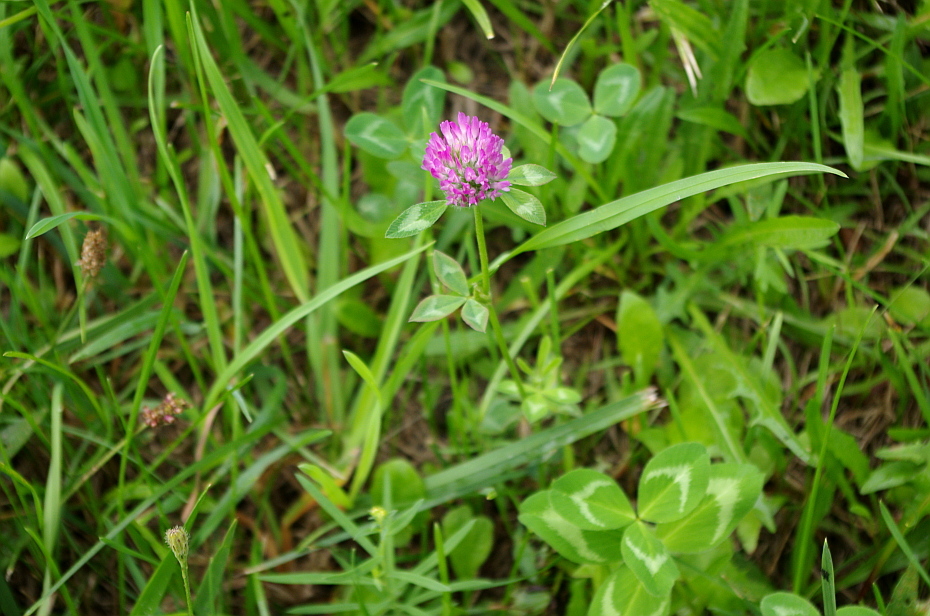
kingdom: Plantae
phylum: Tracheophyta
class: Magnoliopsida
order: Fabales
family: Fabaceae
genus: Trifolium
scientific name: Trifolium pratense
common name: Red clover
